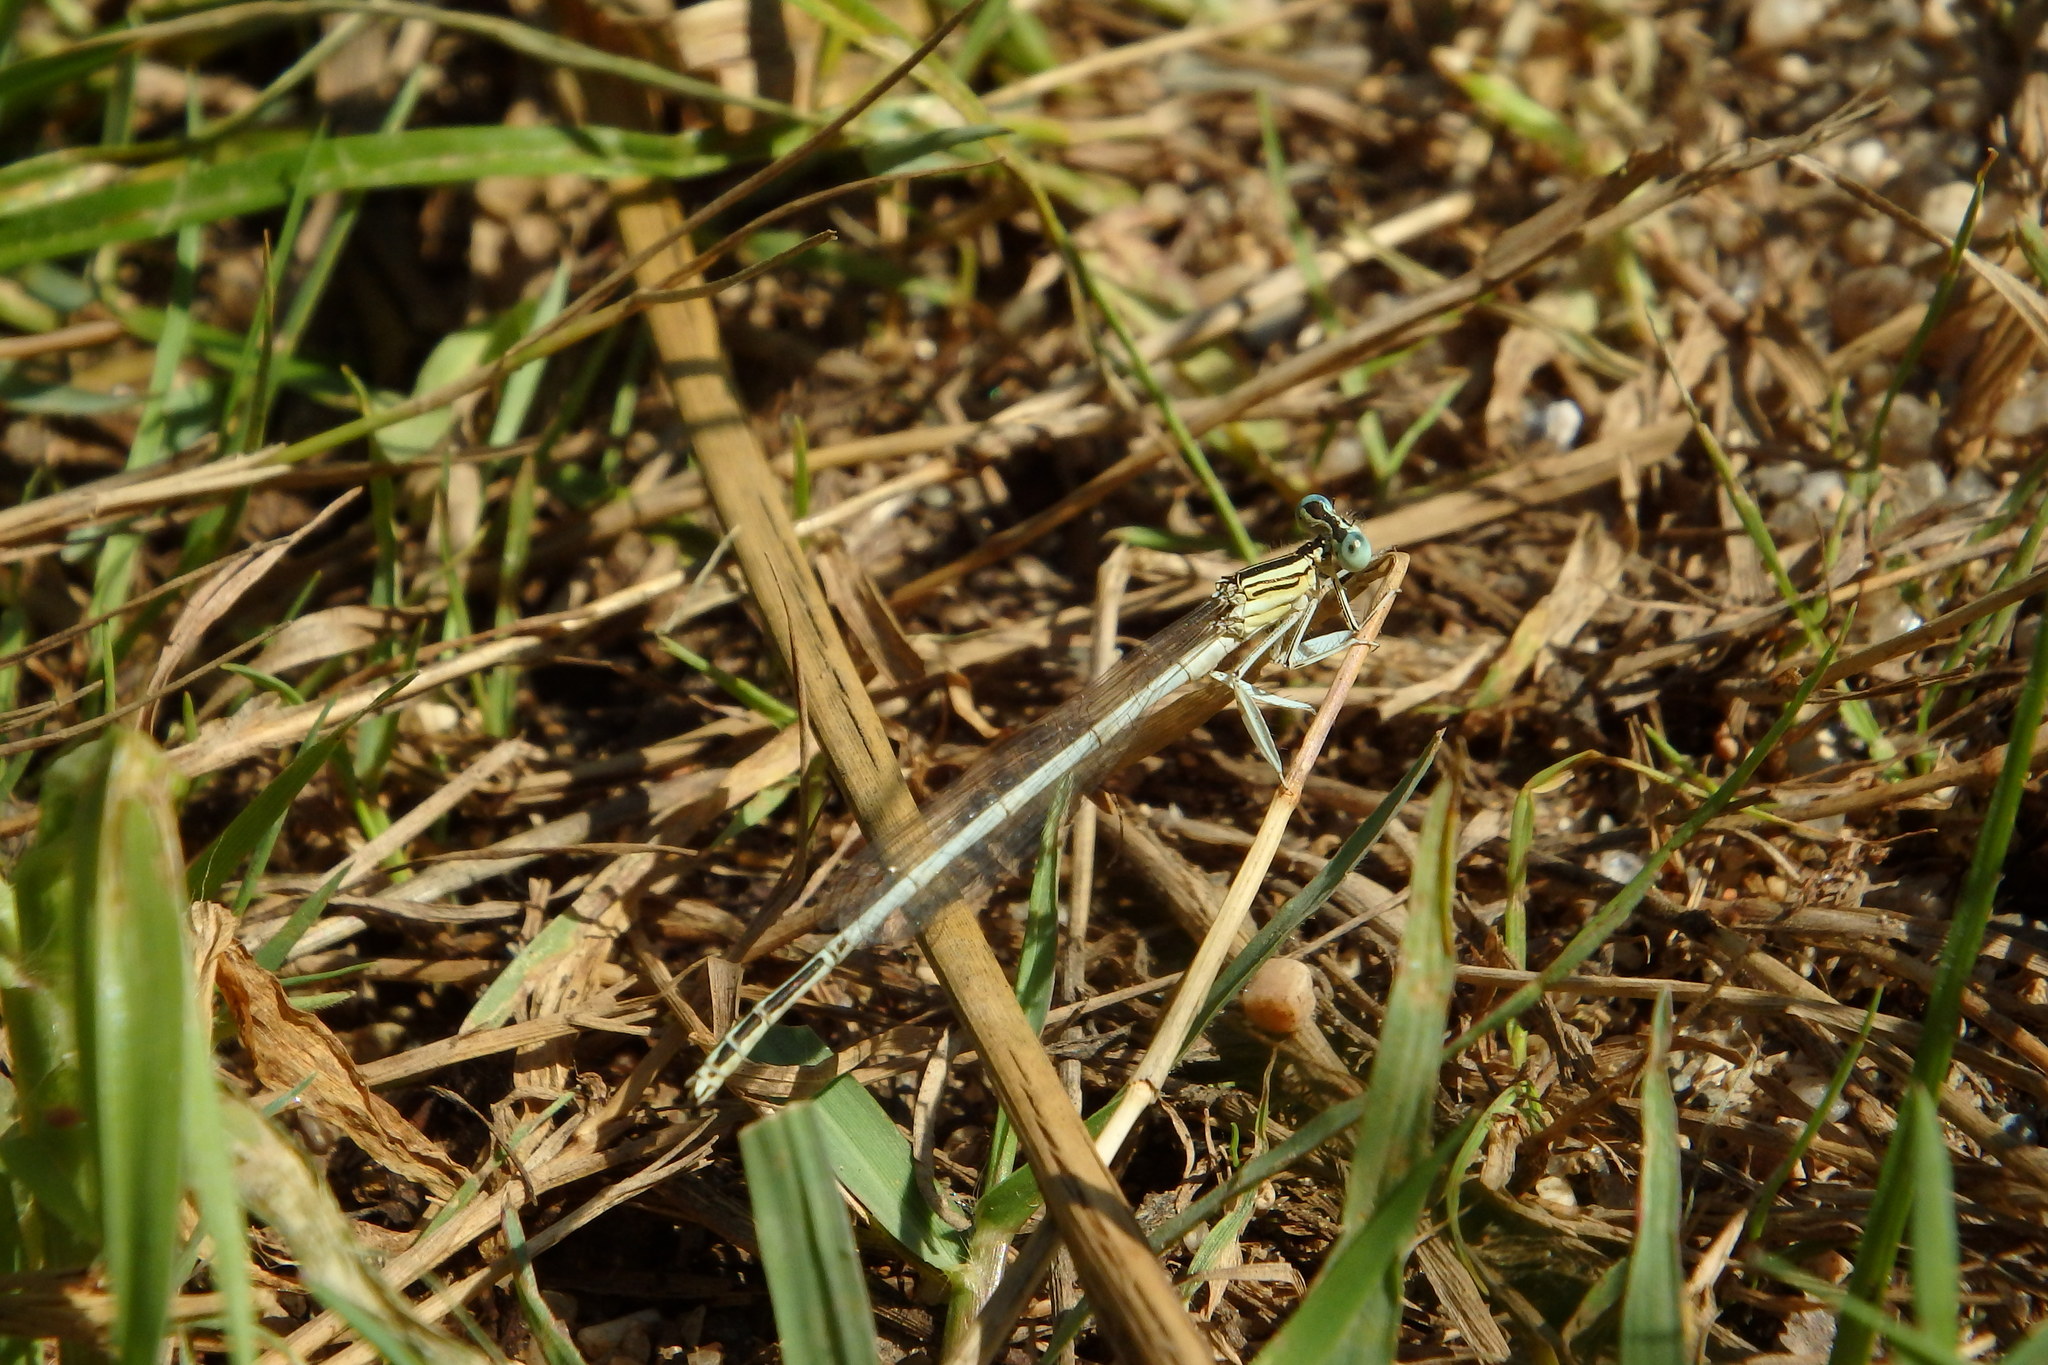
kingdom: Animalia
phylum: Arthropoda
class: Insecta
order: Odonata
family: Platycnemididae
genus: Platycnemis
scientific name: Platycnemis latipes
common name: White featherleg
